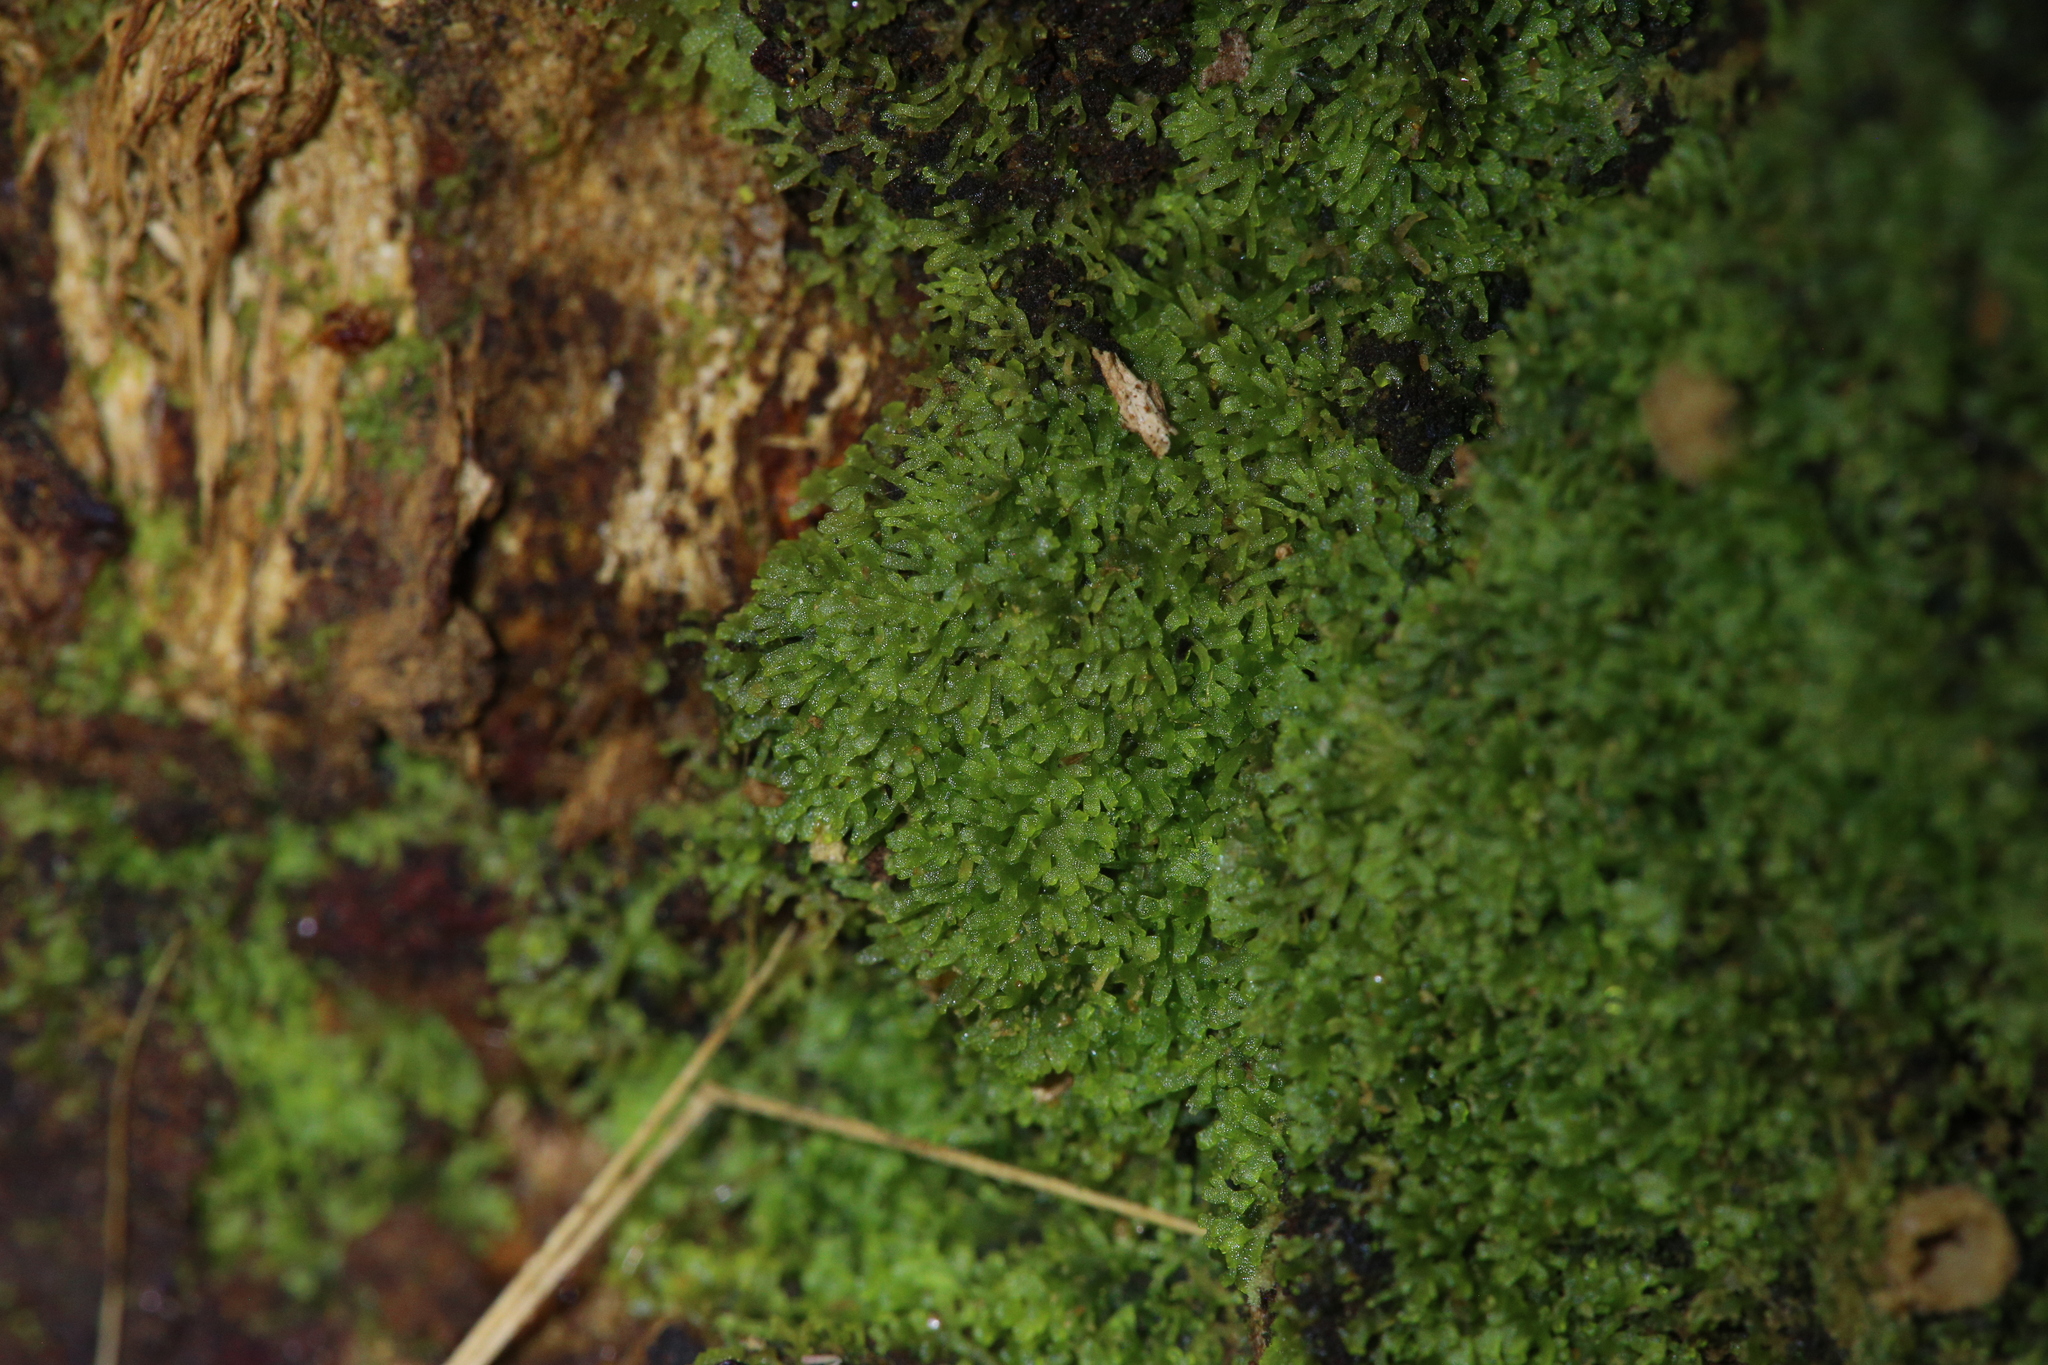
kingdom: Plantae
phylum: Marchantiophyta
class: Jungermanniopsida
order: Metzgeriales
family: Aneuraceae
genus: Riccardia
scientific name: Riccardia aequicellularis
